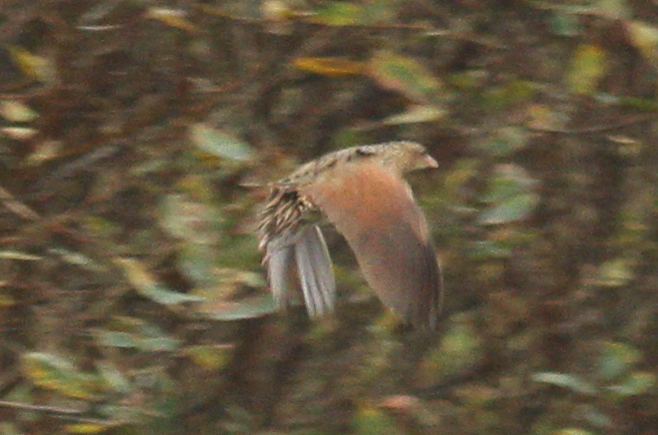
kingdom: Animalia
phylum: Chordata
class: Aves
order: Gruiformes
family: Rallidae
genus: Crex
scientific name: Crex crex
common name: Corn crake
